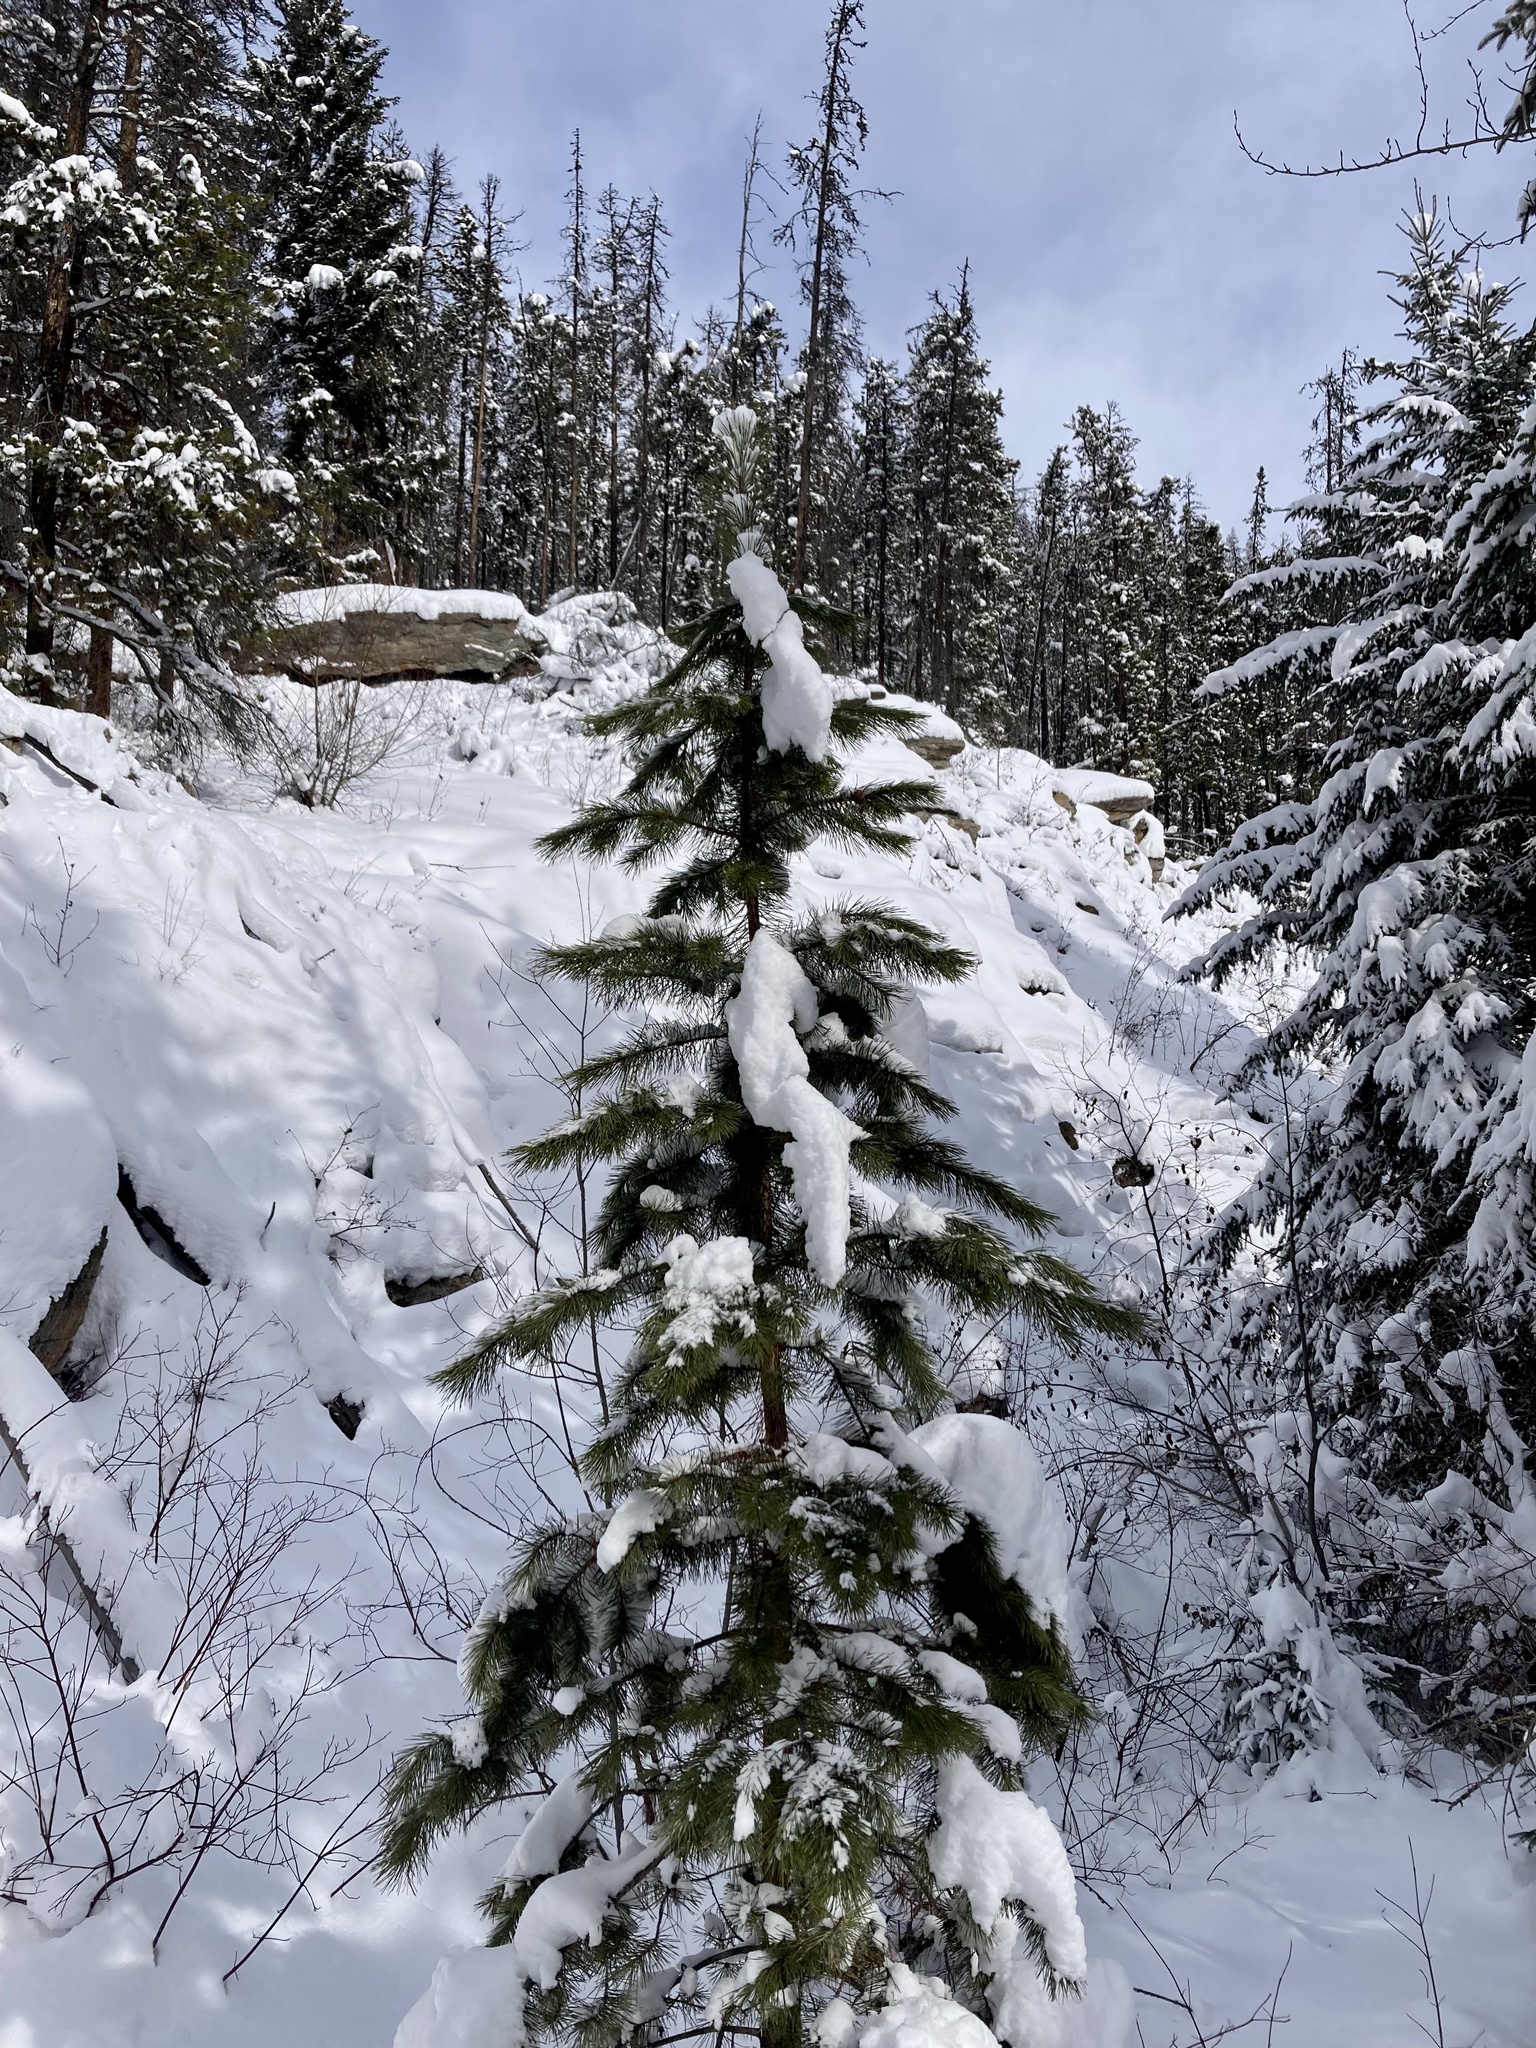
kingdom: Plantae
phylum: Tracheophyta
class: Pinopsida
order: Pinales
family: Pinaceae
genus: Pinus
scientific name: Pinus contorta
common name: Lodgepole pine
